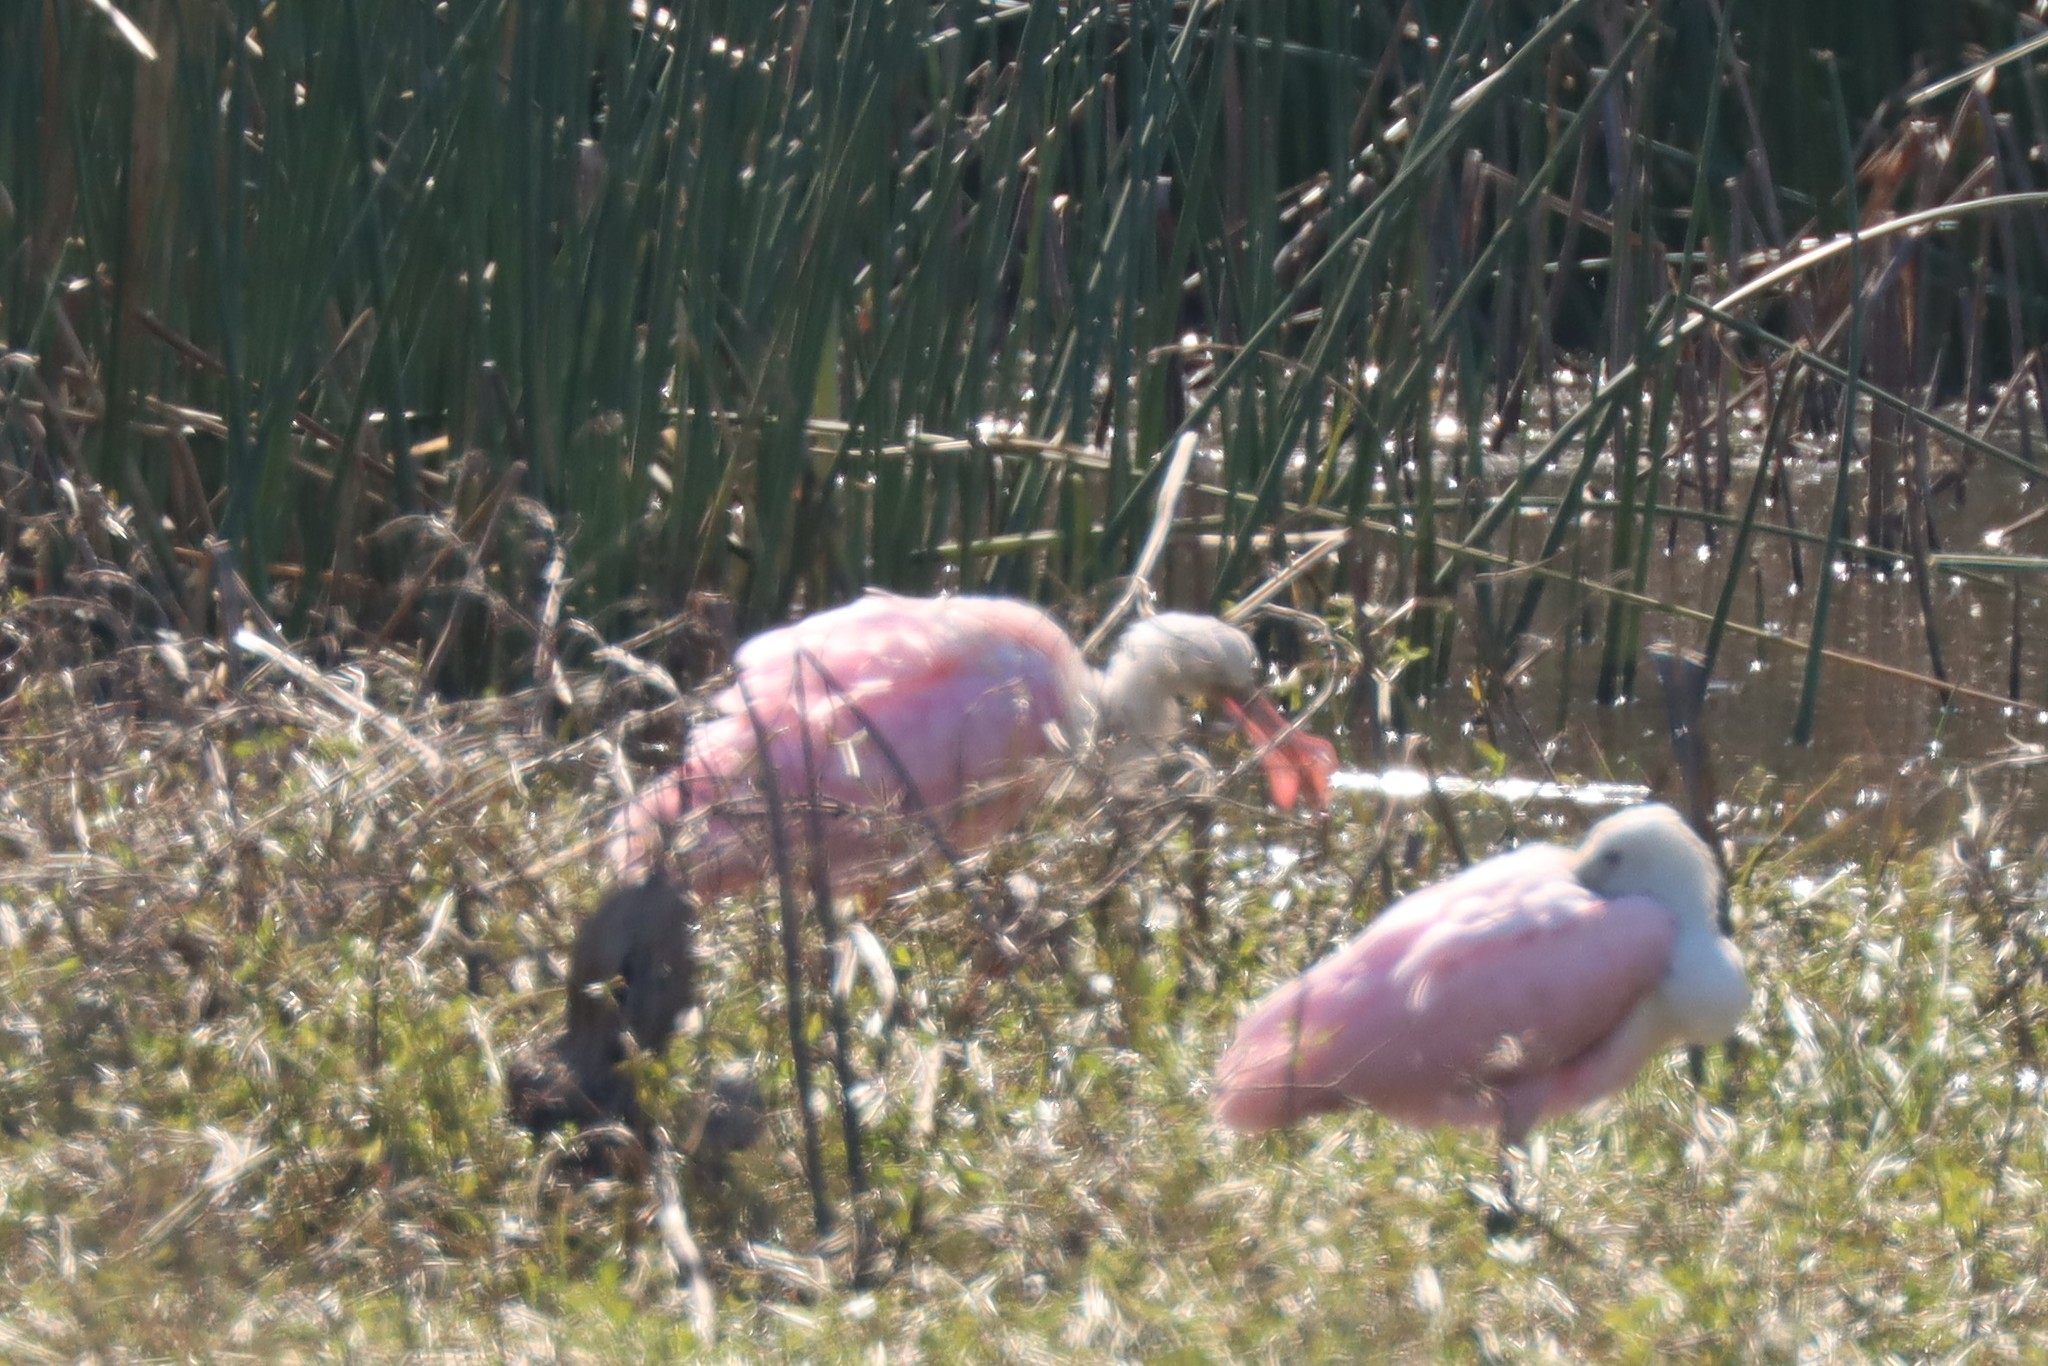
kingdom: Animalia
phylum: Chordata
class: Aves
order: Pelecaniformes
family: Threskiornithidae
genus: Platalea
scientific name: Platalea ajaja
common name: Roseate spoonbill
